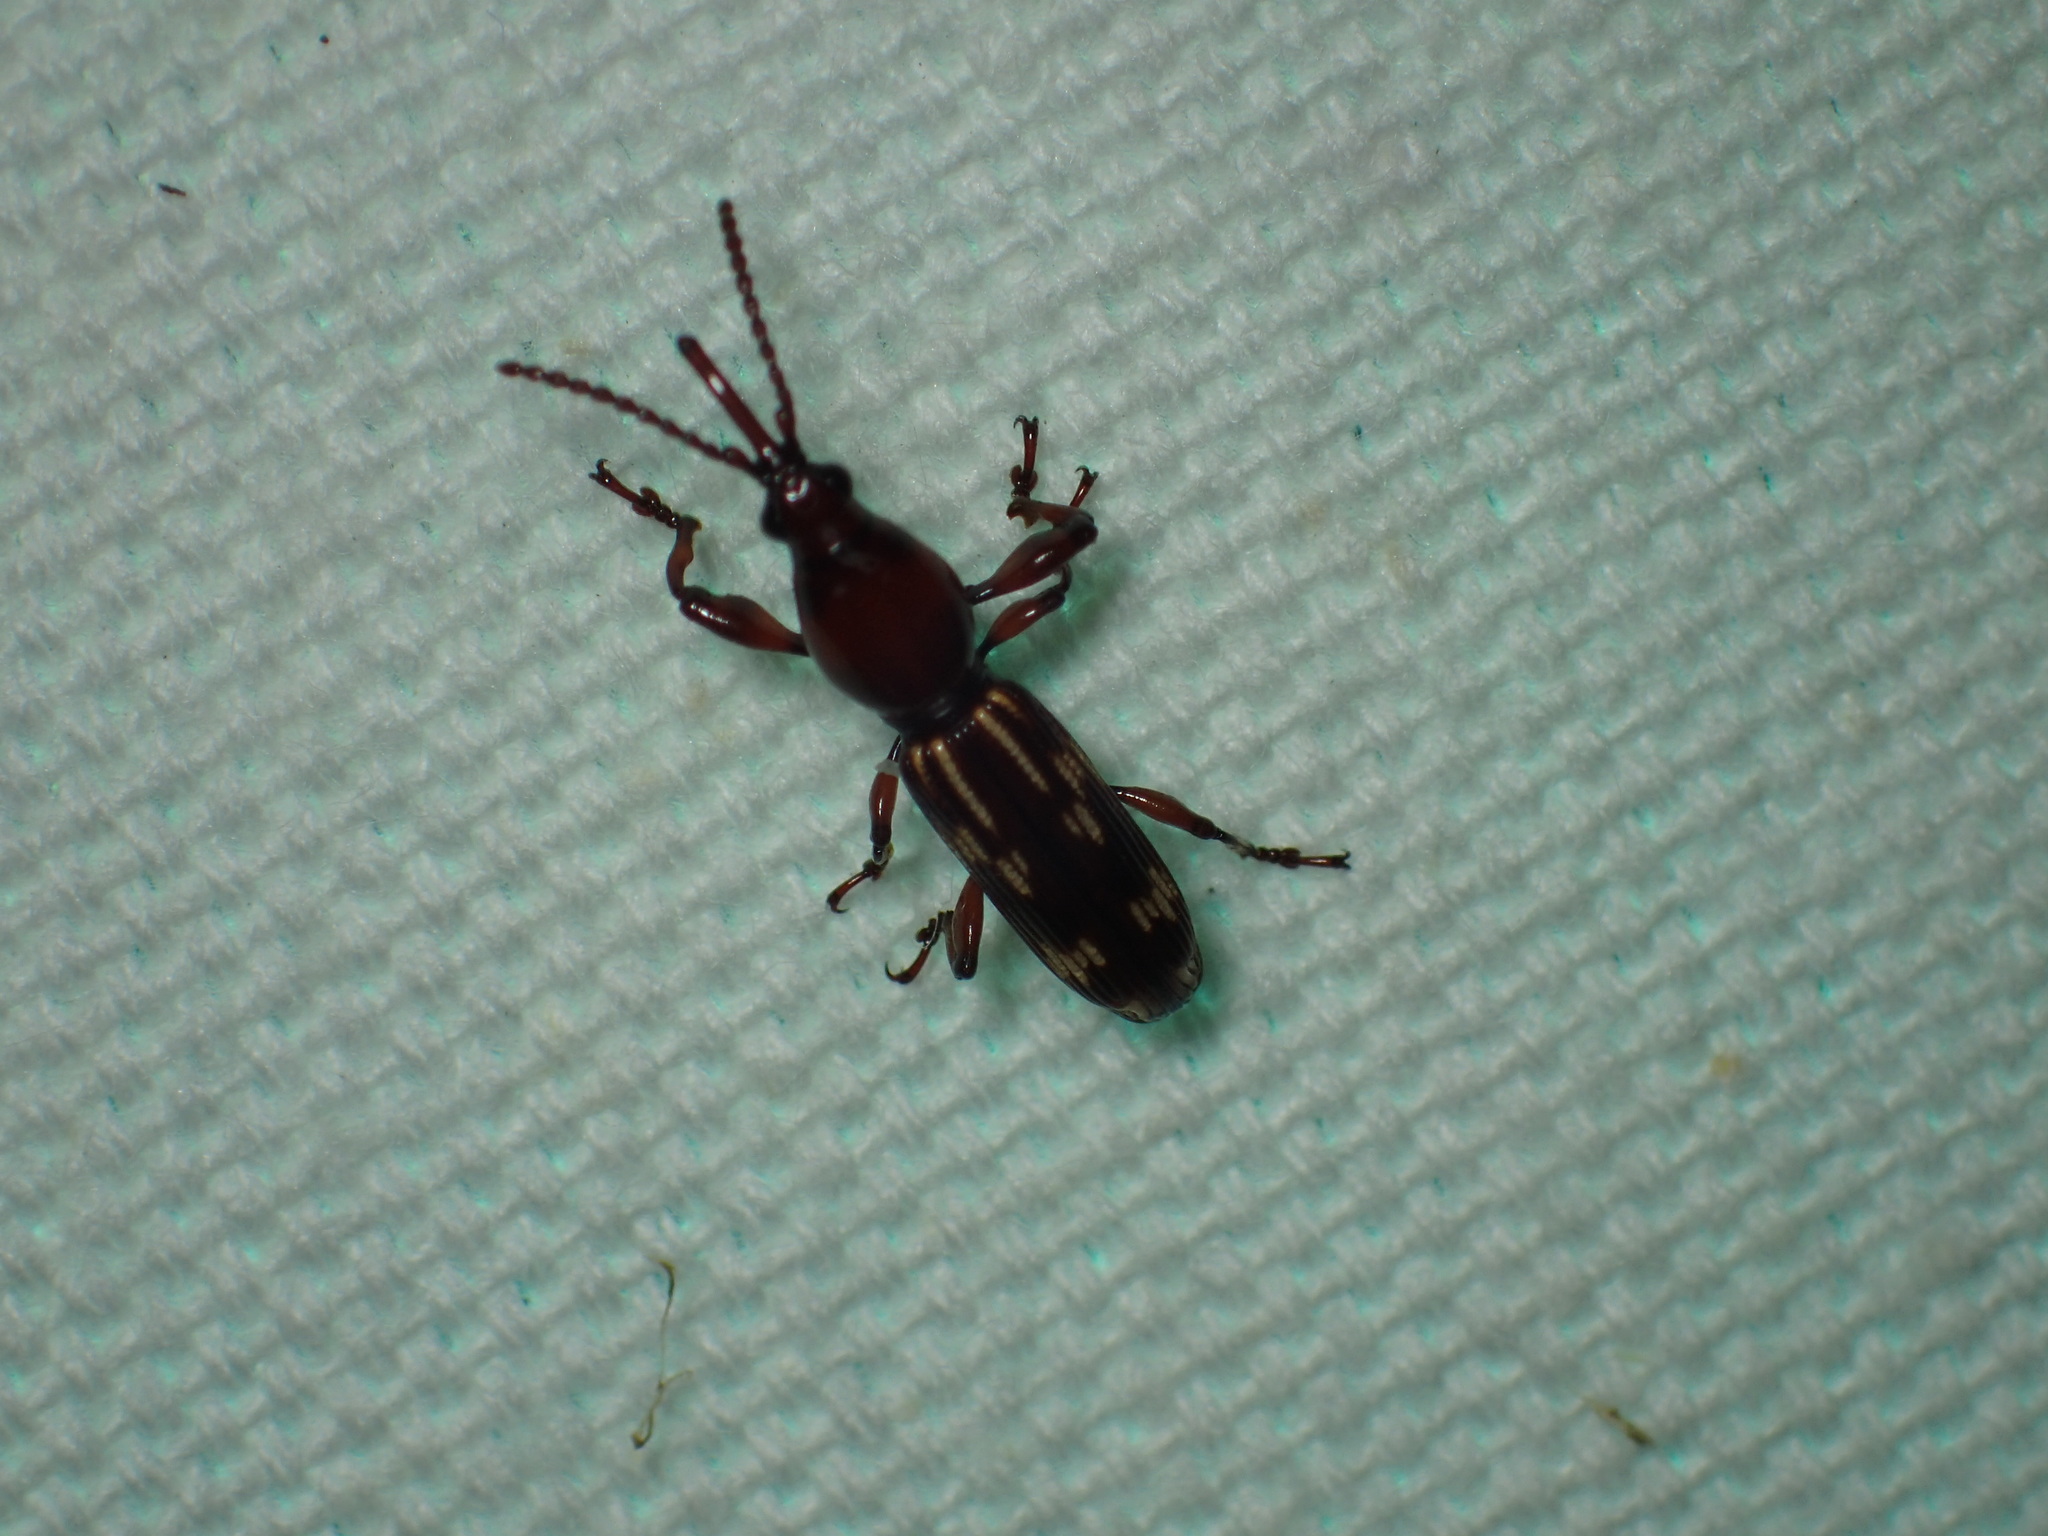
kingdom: Animalia
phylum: Arthropoda
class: Insecta
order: Coleoptera
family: Brentidae
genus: Arrenodes
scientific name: Arrenodes minutus
